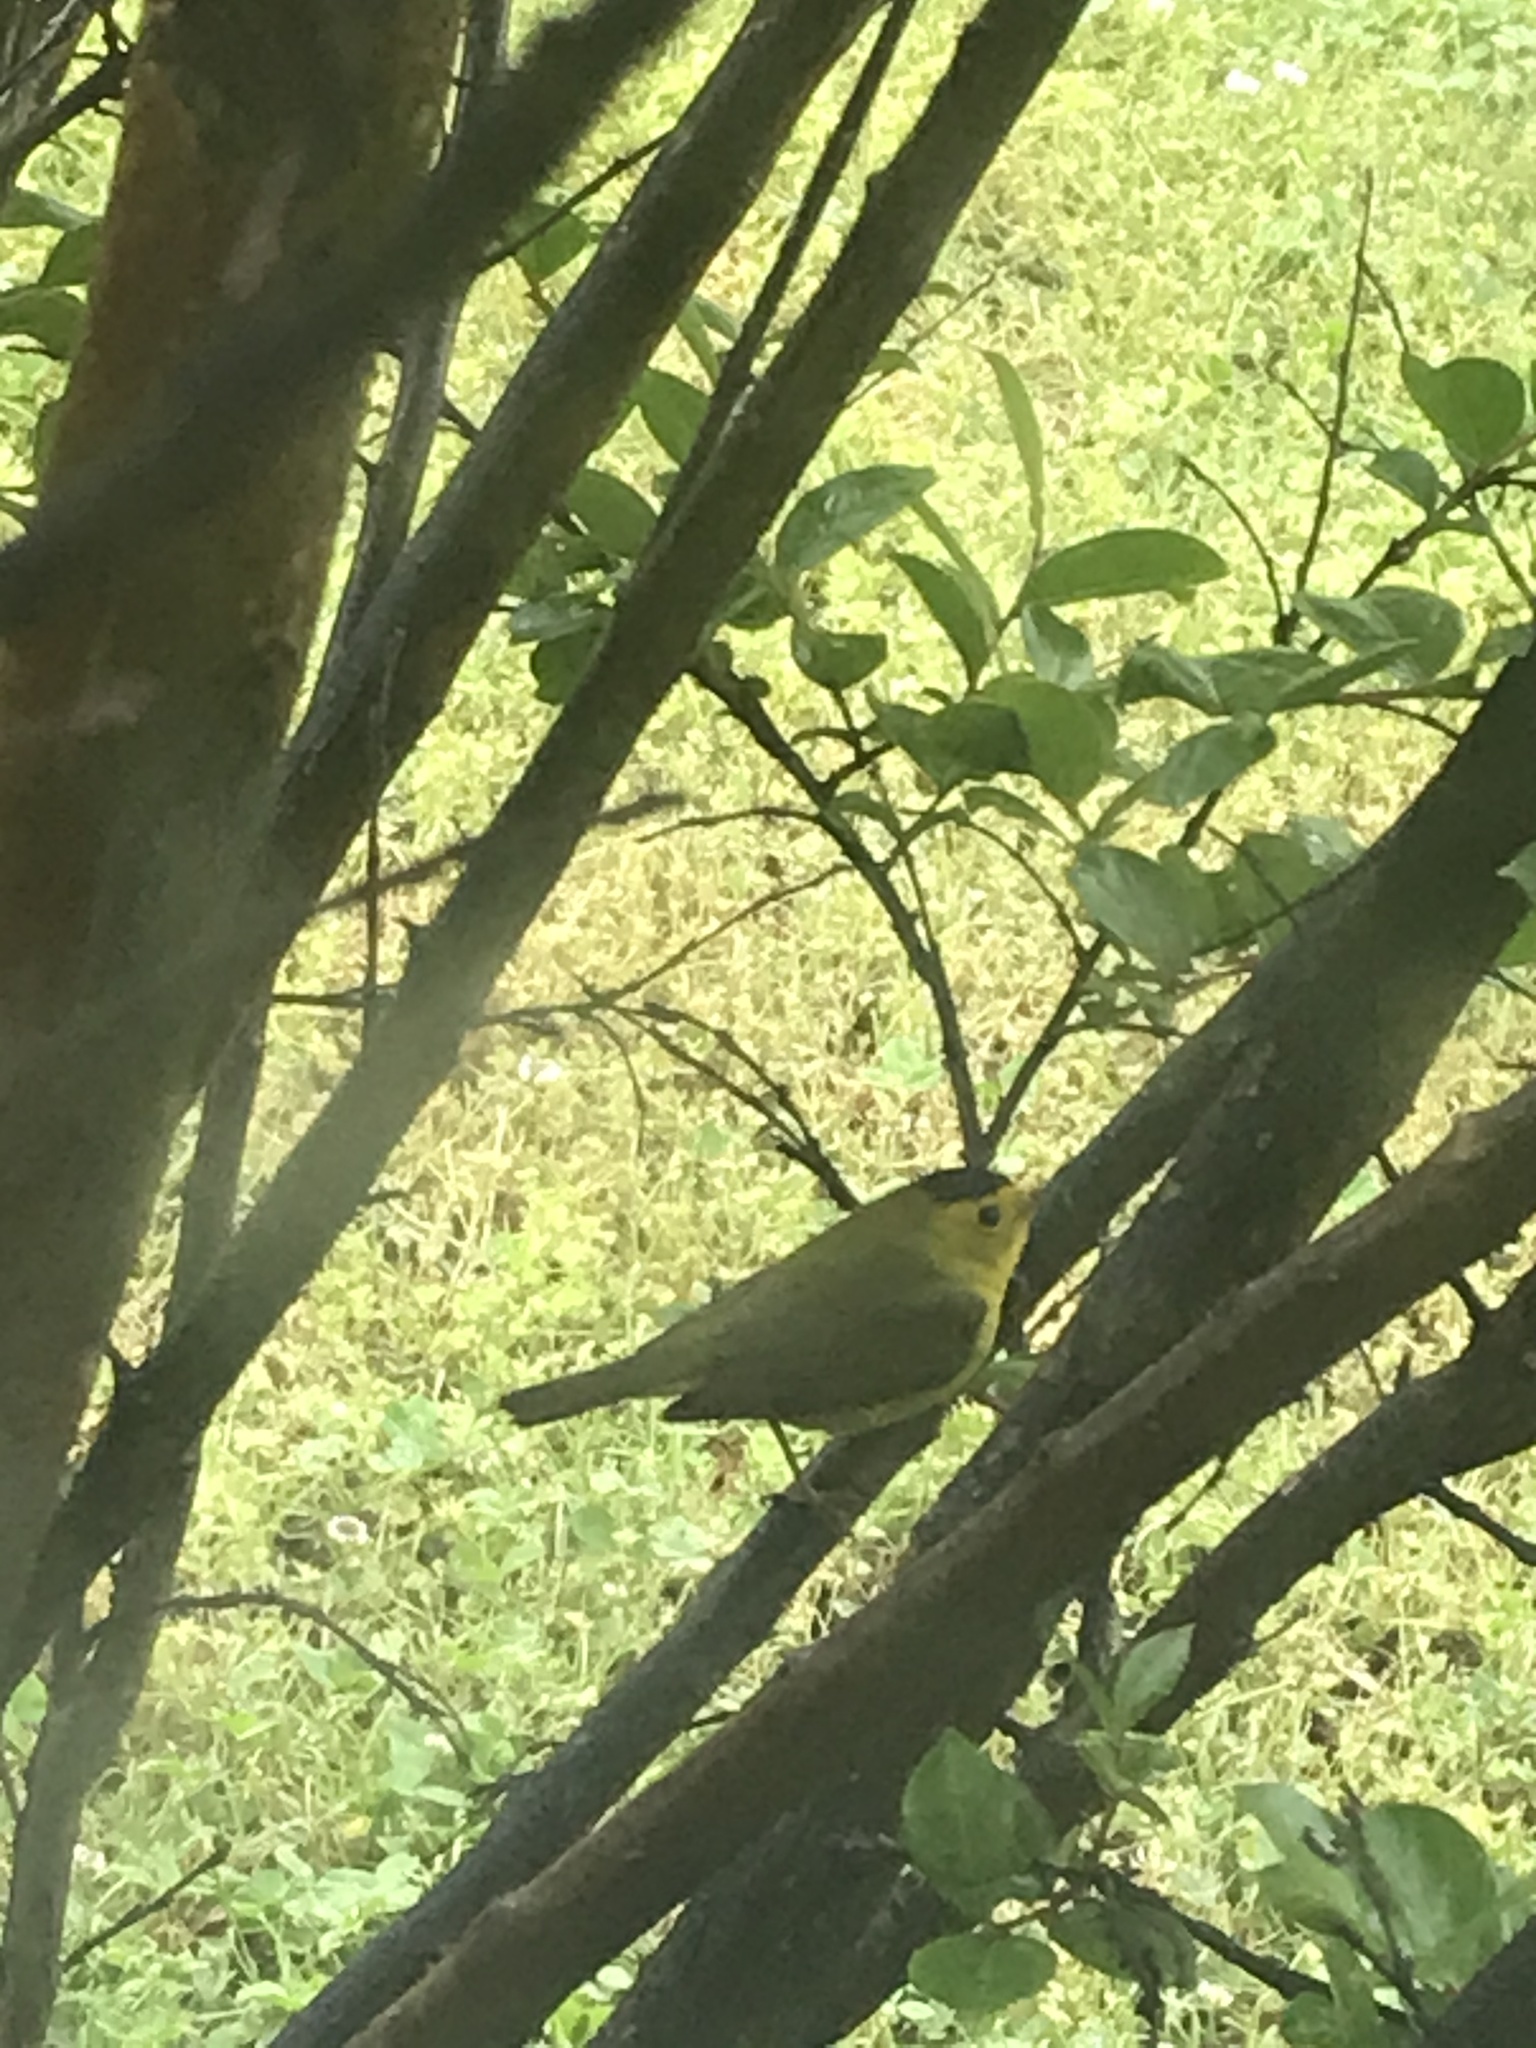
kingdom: Animalia
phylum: Chordata
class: Aves
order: Passeriformes
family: Parulidae
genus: Cardellina
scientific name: Cardellina pusilla
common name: Wilson's warbler
